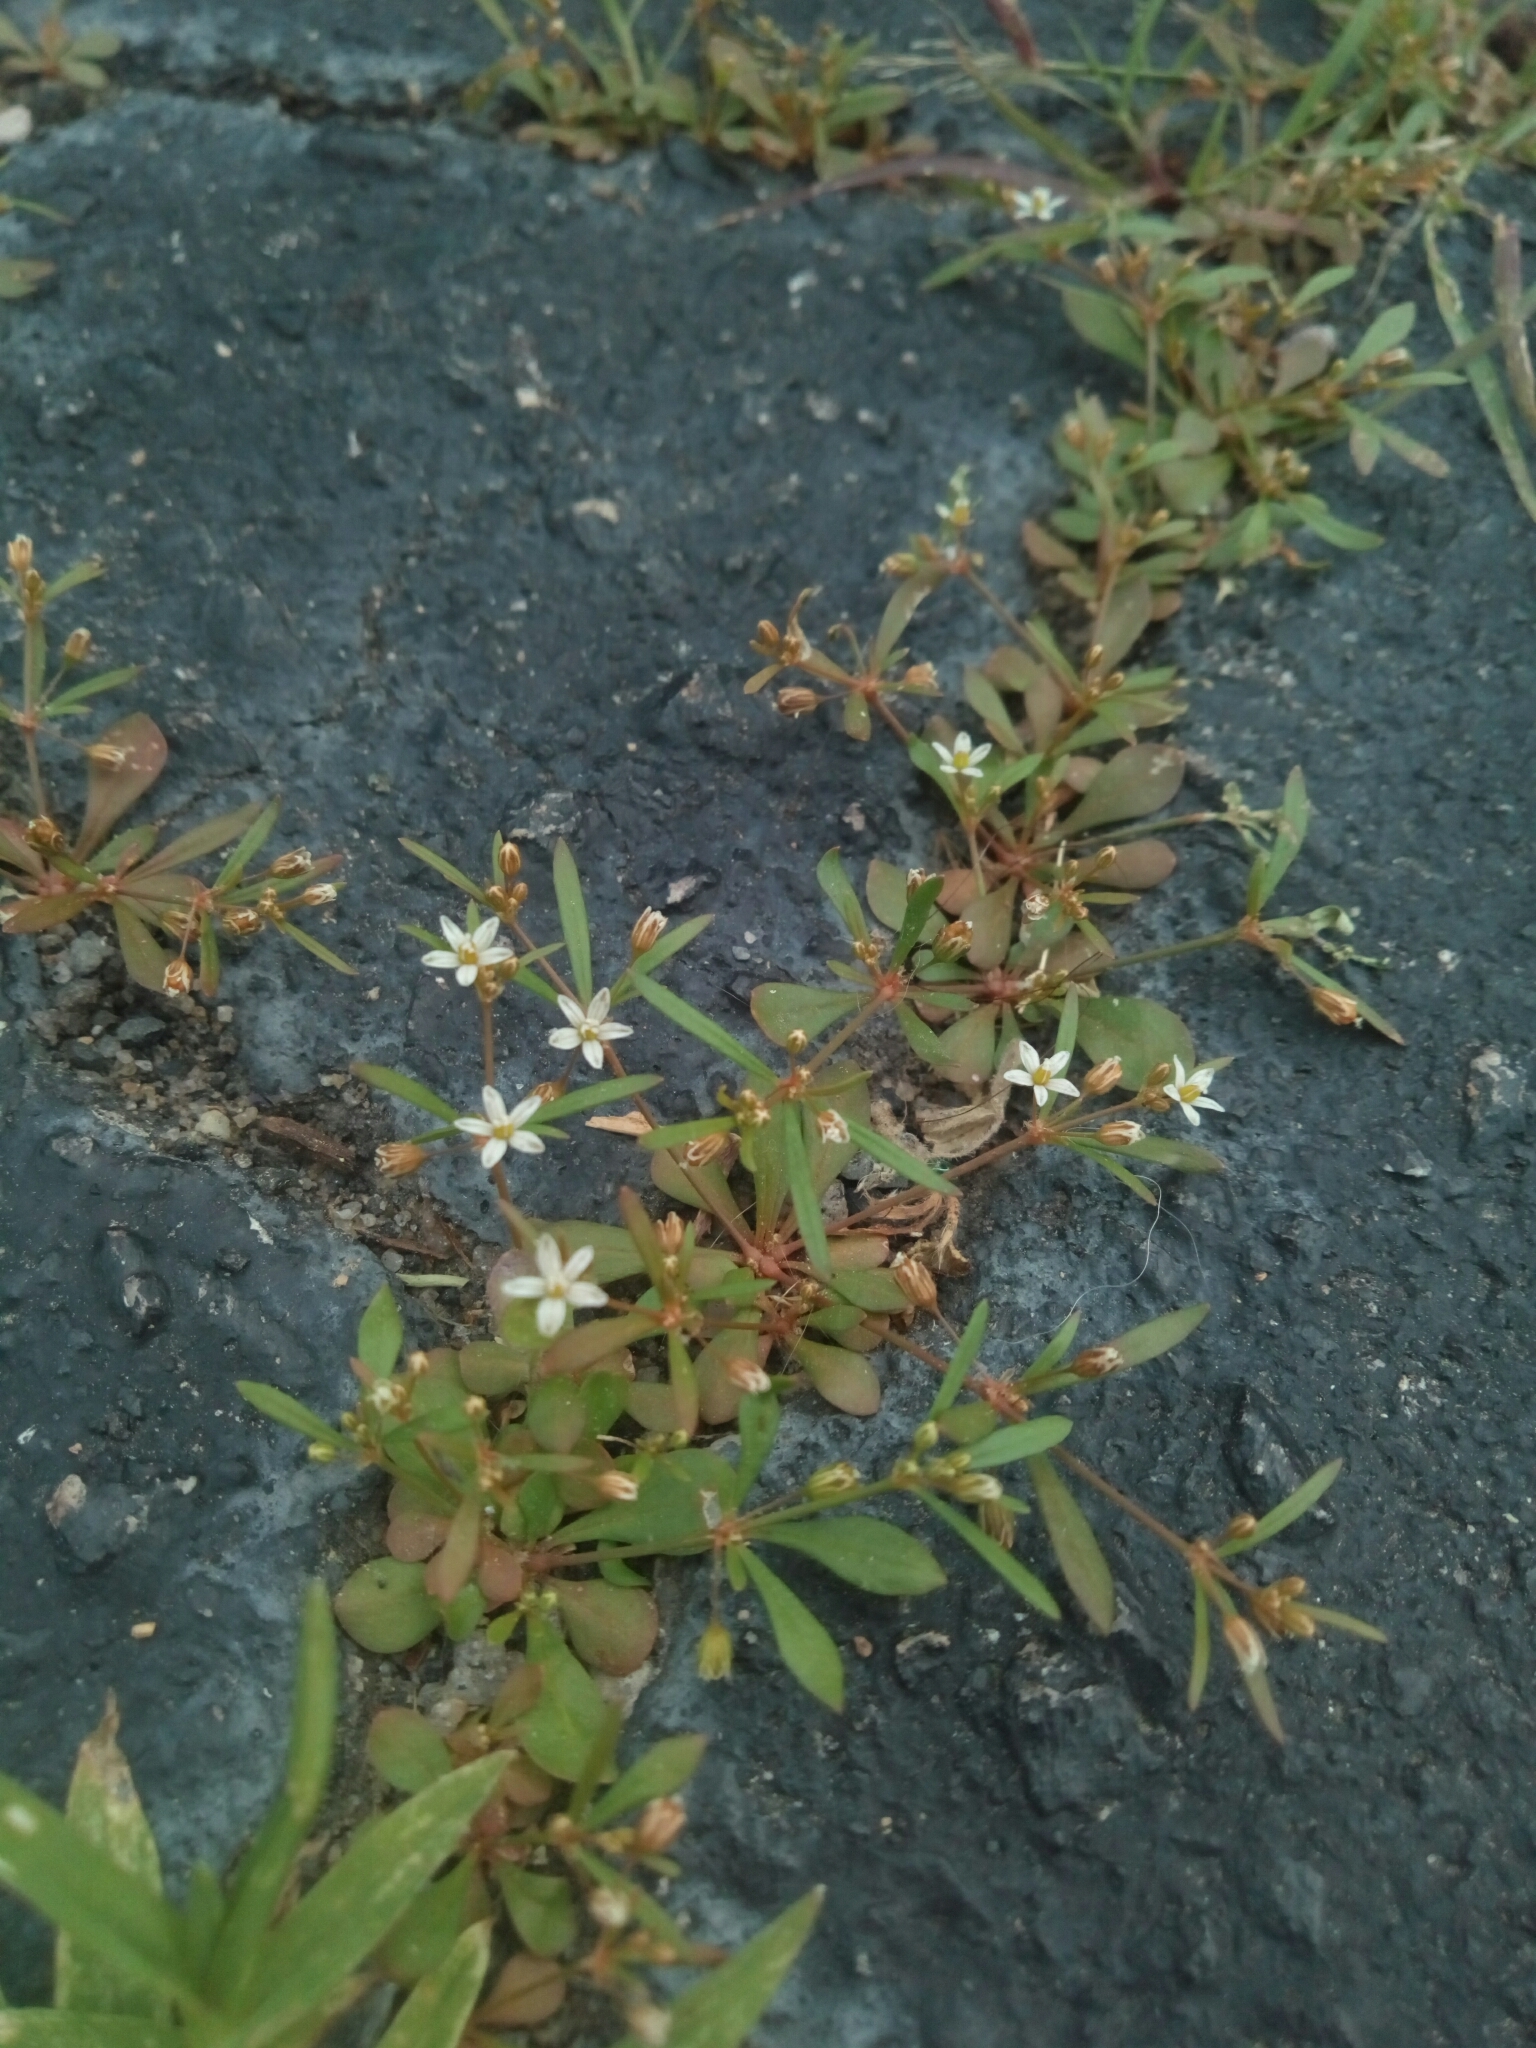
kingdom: Plantae
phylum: Tracheophyta
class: Magnoliopsida
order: Caryophyllales
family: Molluginaceae
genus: Mollugo
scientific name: Mollugo verticillata
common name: Green carpetweed
